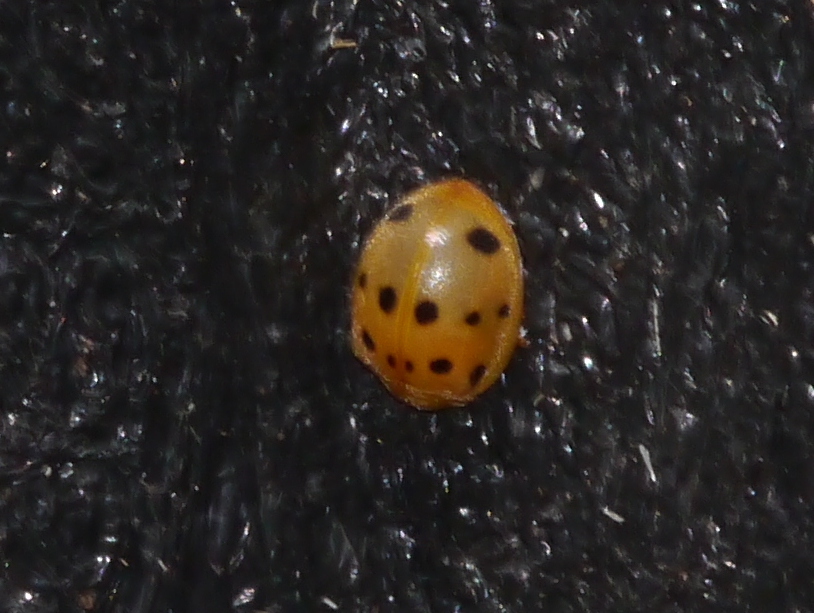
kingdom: Animalia
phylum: Arthropoda
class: Insecta
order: Coleoptera
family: Coccinellidae
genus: Epilachna
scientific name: Epilachna tredecimnotata
